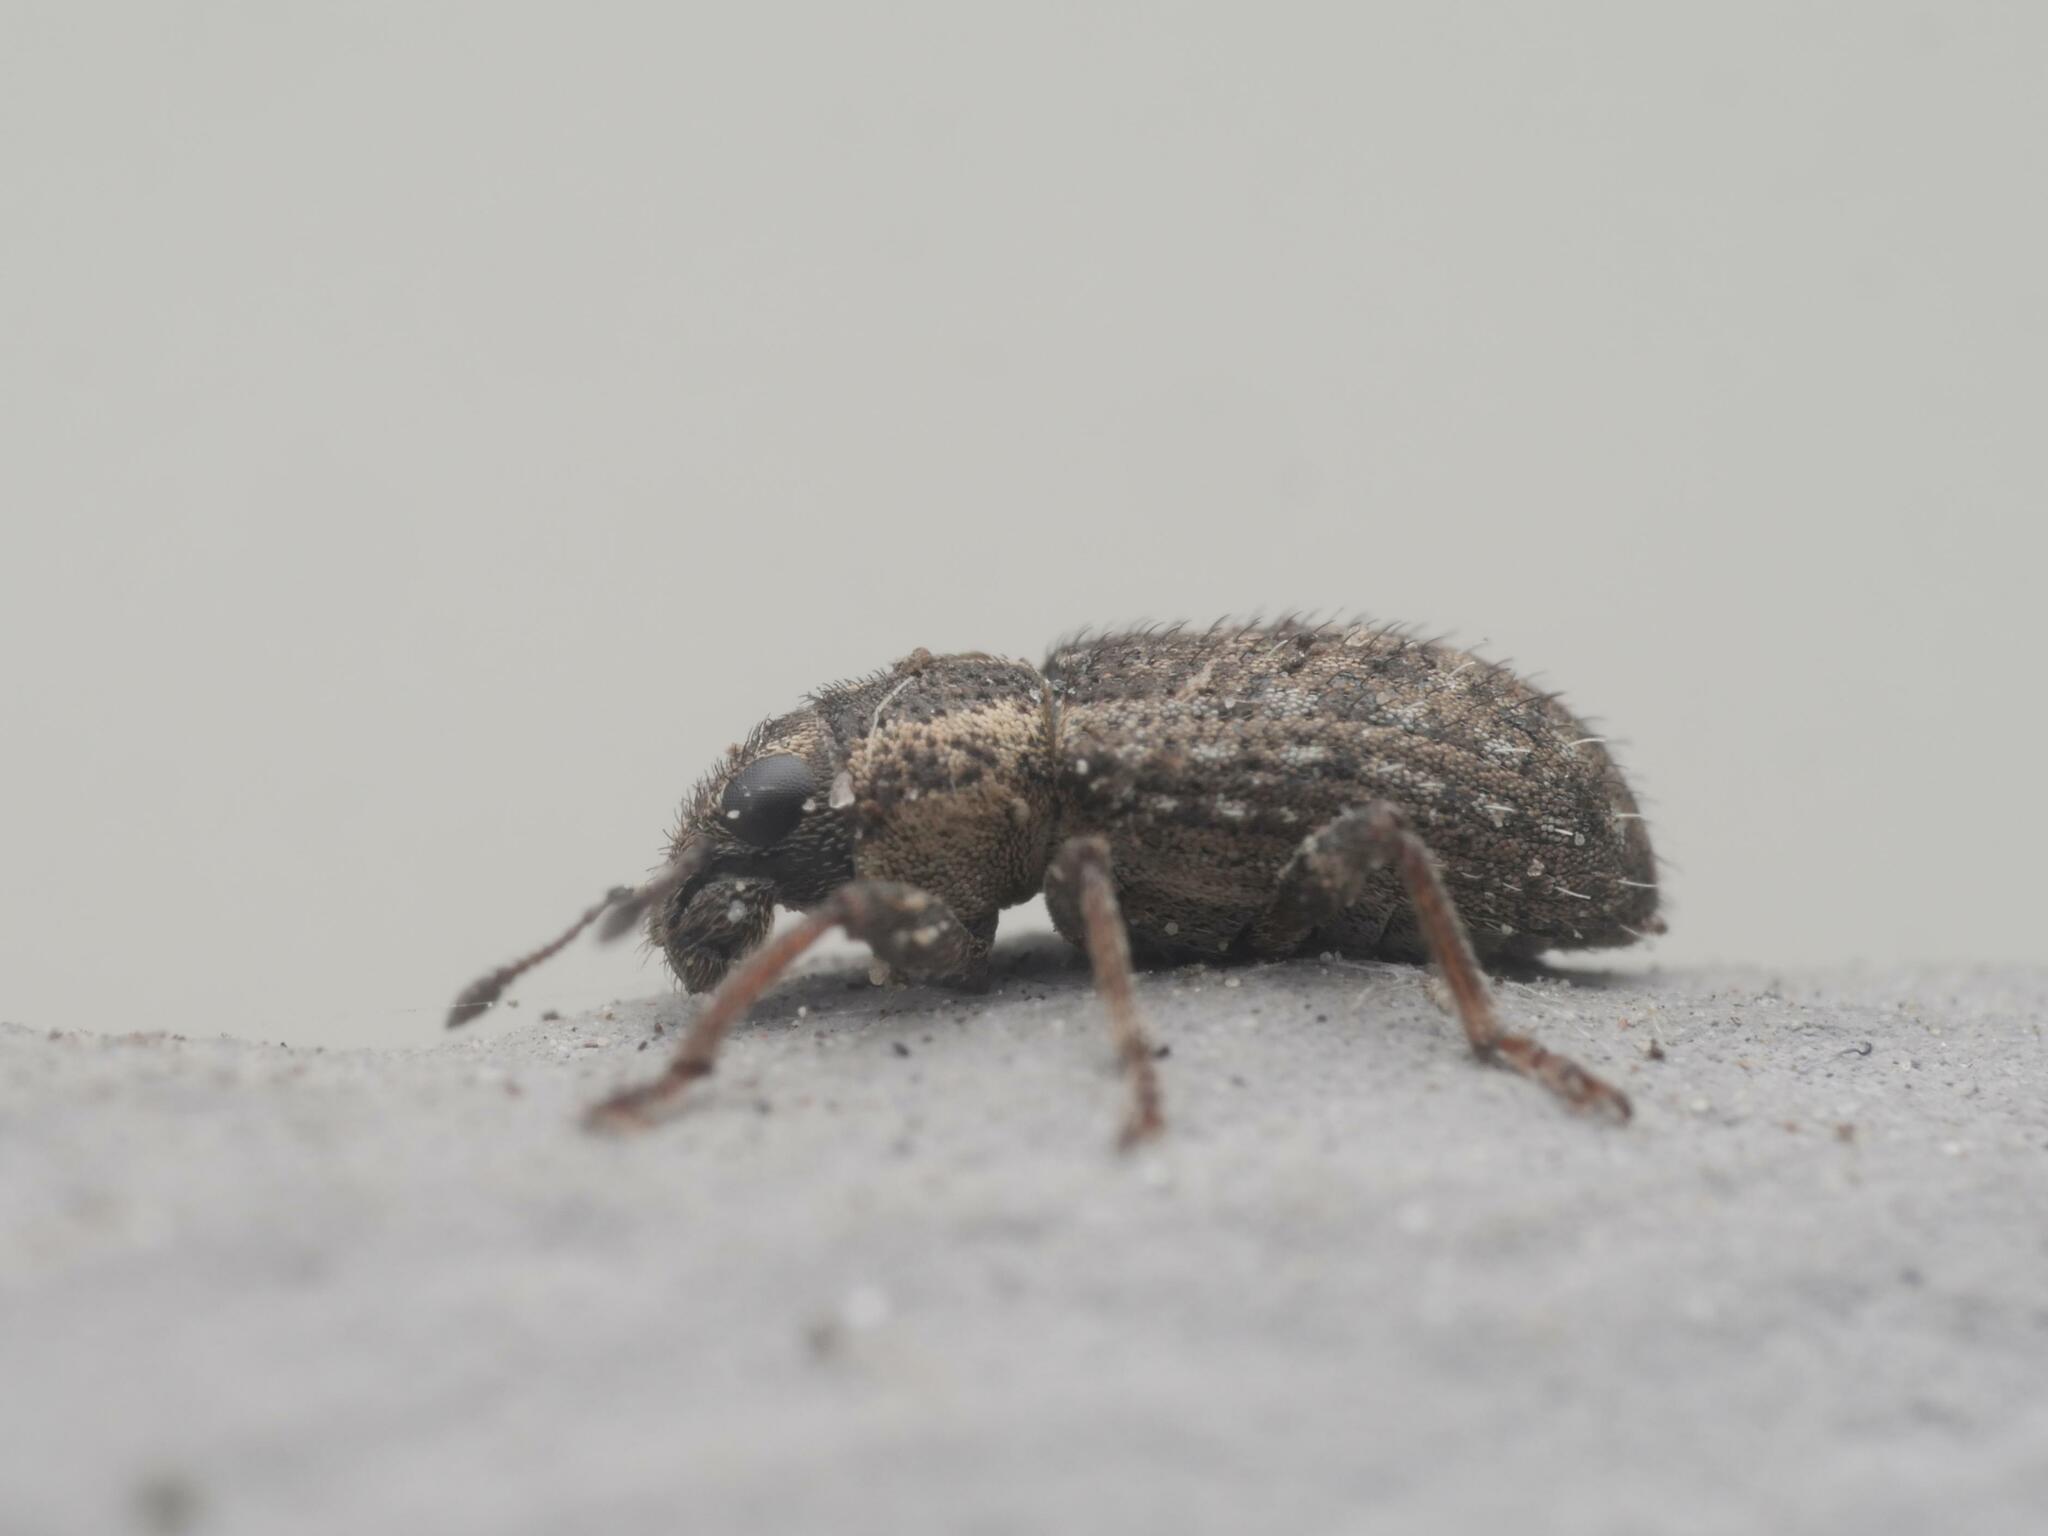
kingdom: Animalia
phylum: Arthropoda
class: Insecta
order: Coleoptera
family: Curculionidae
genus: Sitona
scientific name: Sitona hispidulus
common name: Clover weevil
